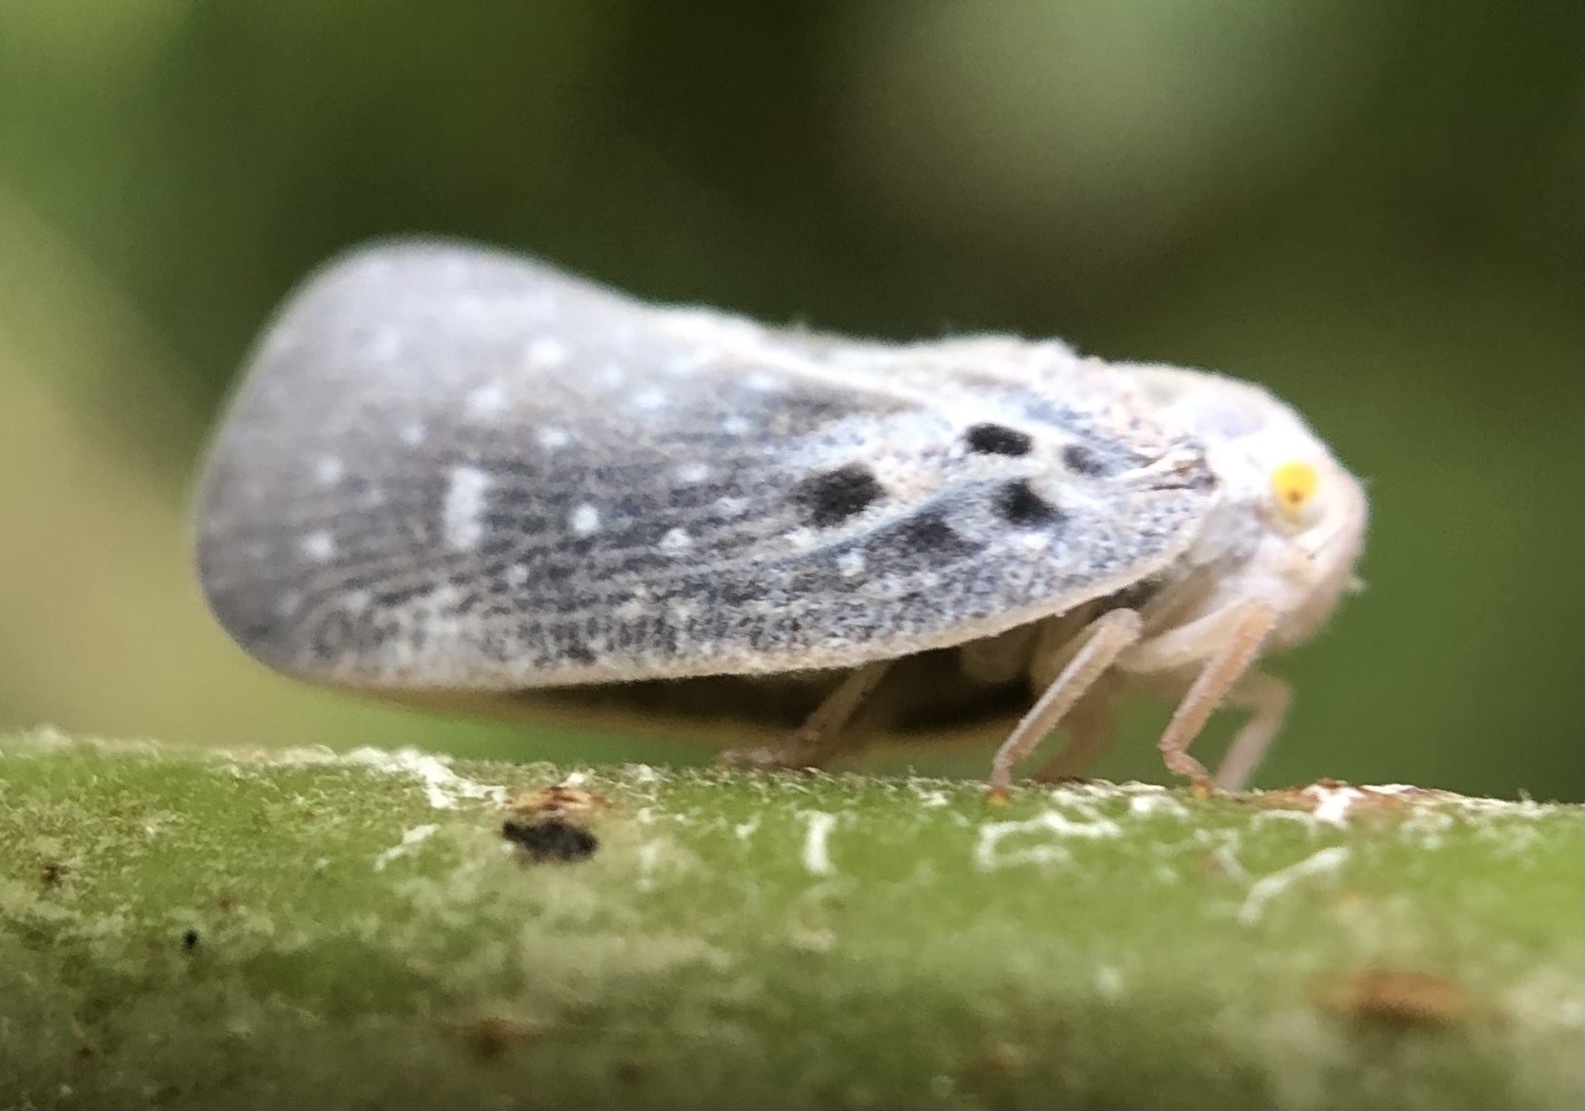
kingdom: Animalia
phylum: Arthropoda
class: Insecta
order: Hemiptera
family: Flatidae
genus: Metcalfa
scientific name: Metcalfa pruinosa
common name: Citrus flatid planthopper
